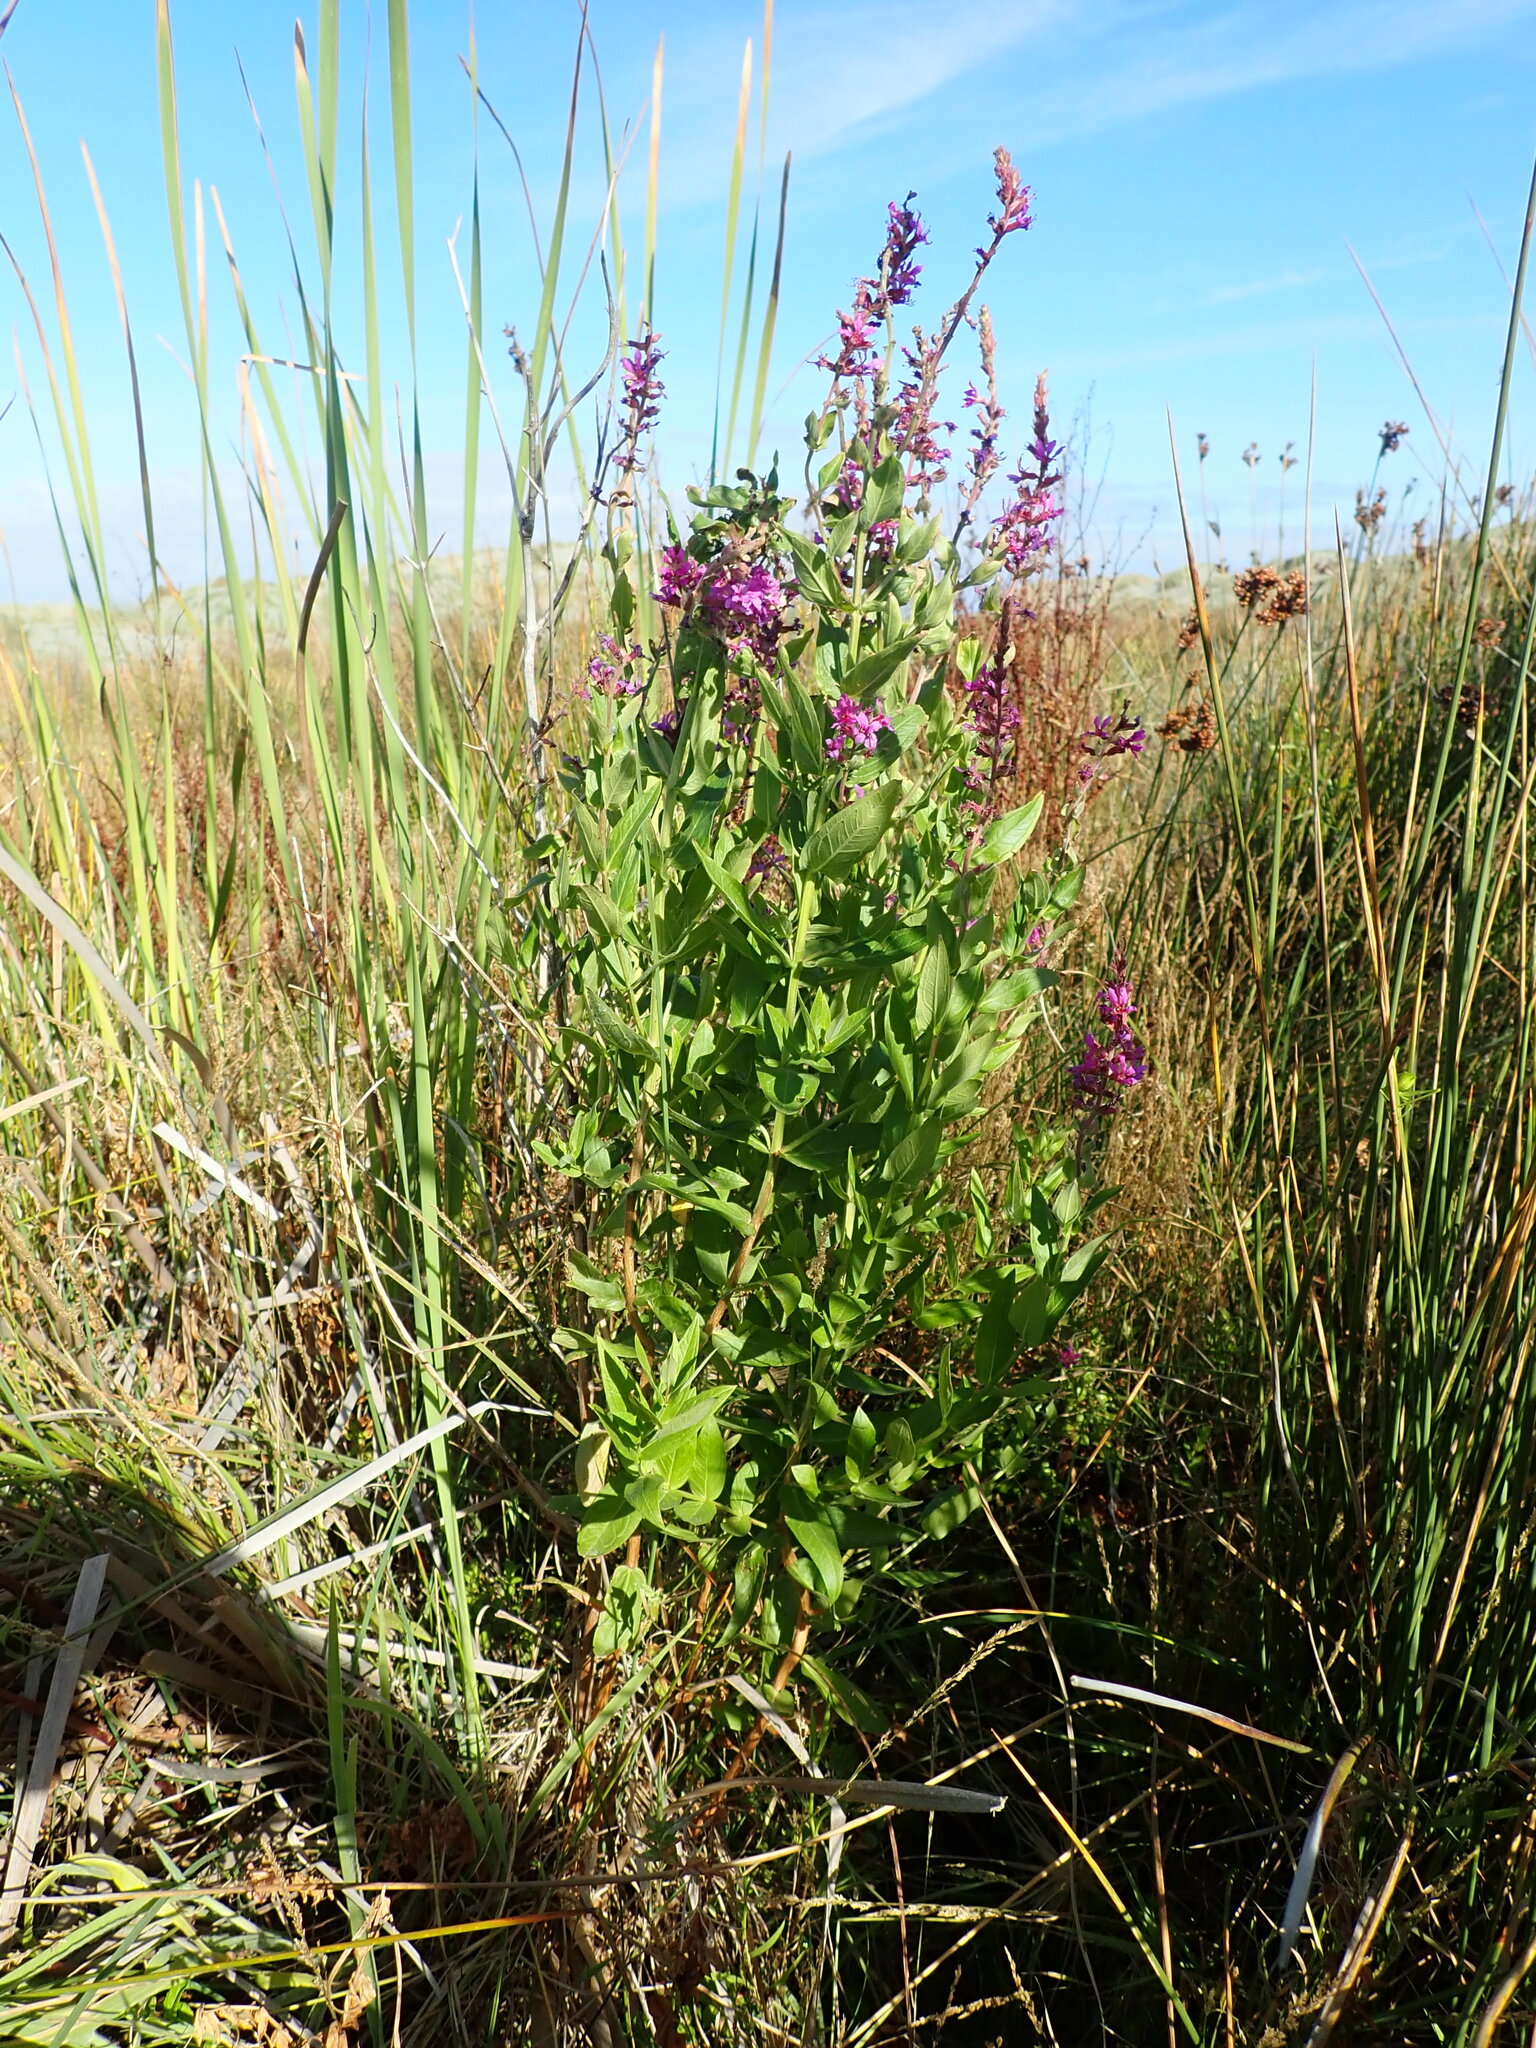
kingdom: Plantae
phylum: Tracheophyta
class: Magnoliopsida
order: Myrtales
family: Lythraceae
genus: Lythrum
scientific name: Lythrum salicaria
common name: Purple loosestrife
